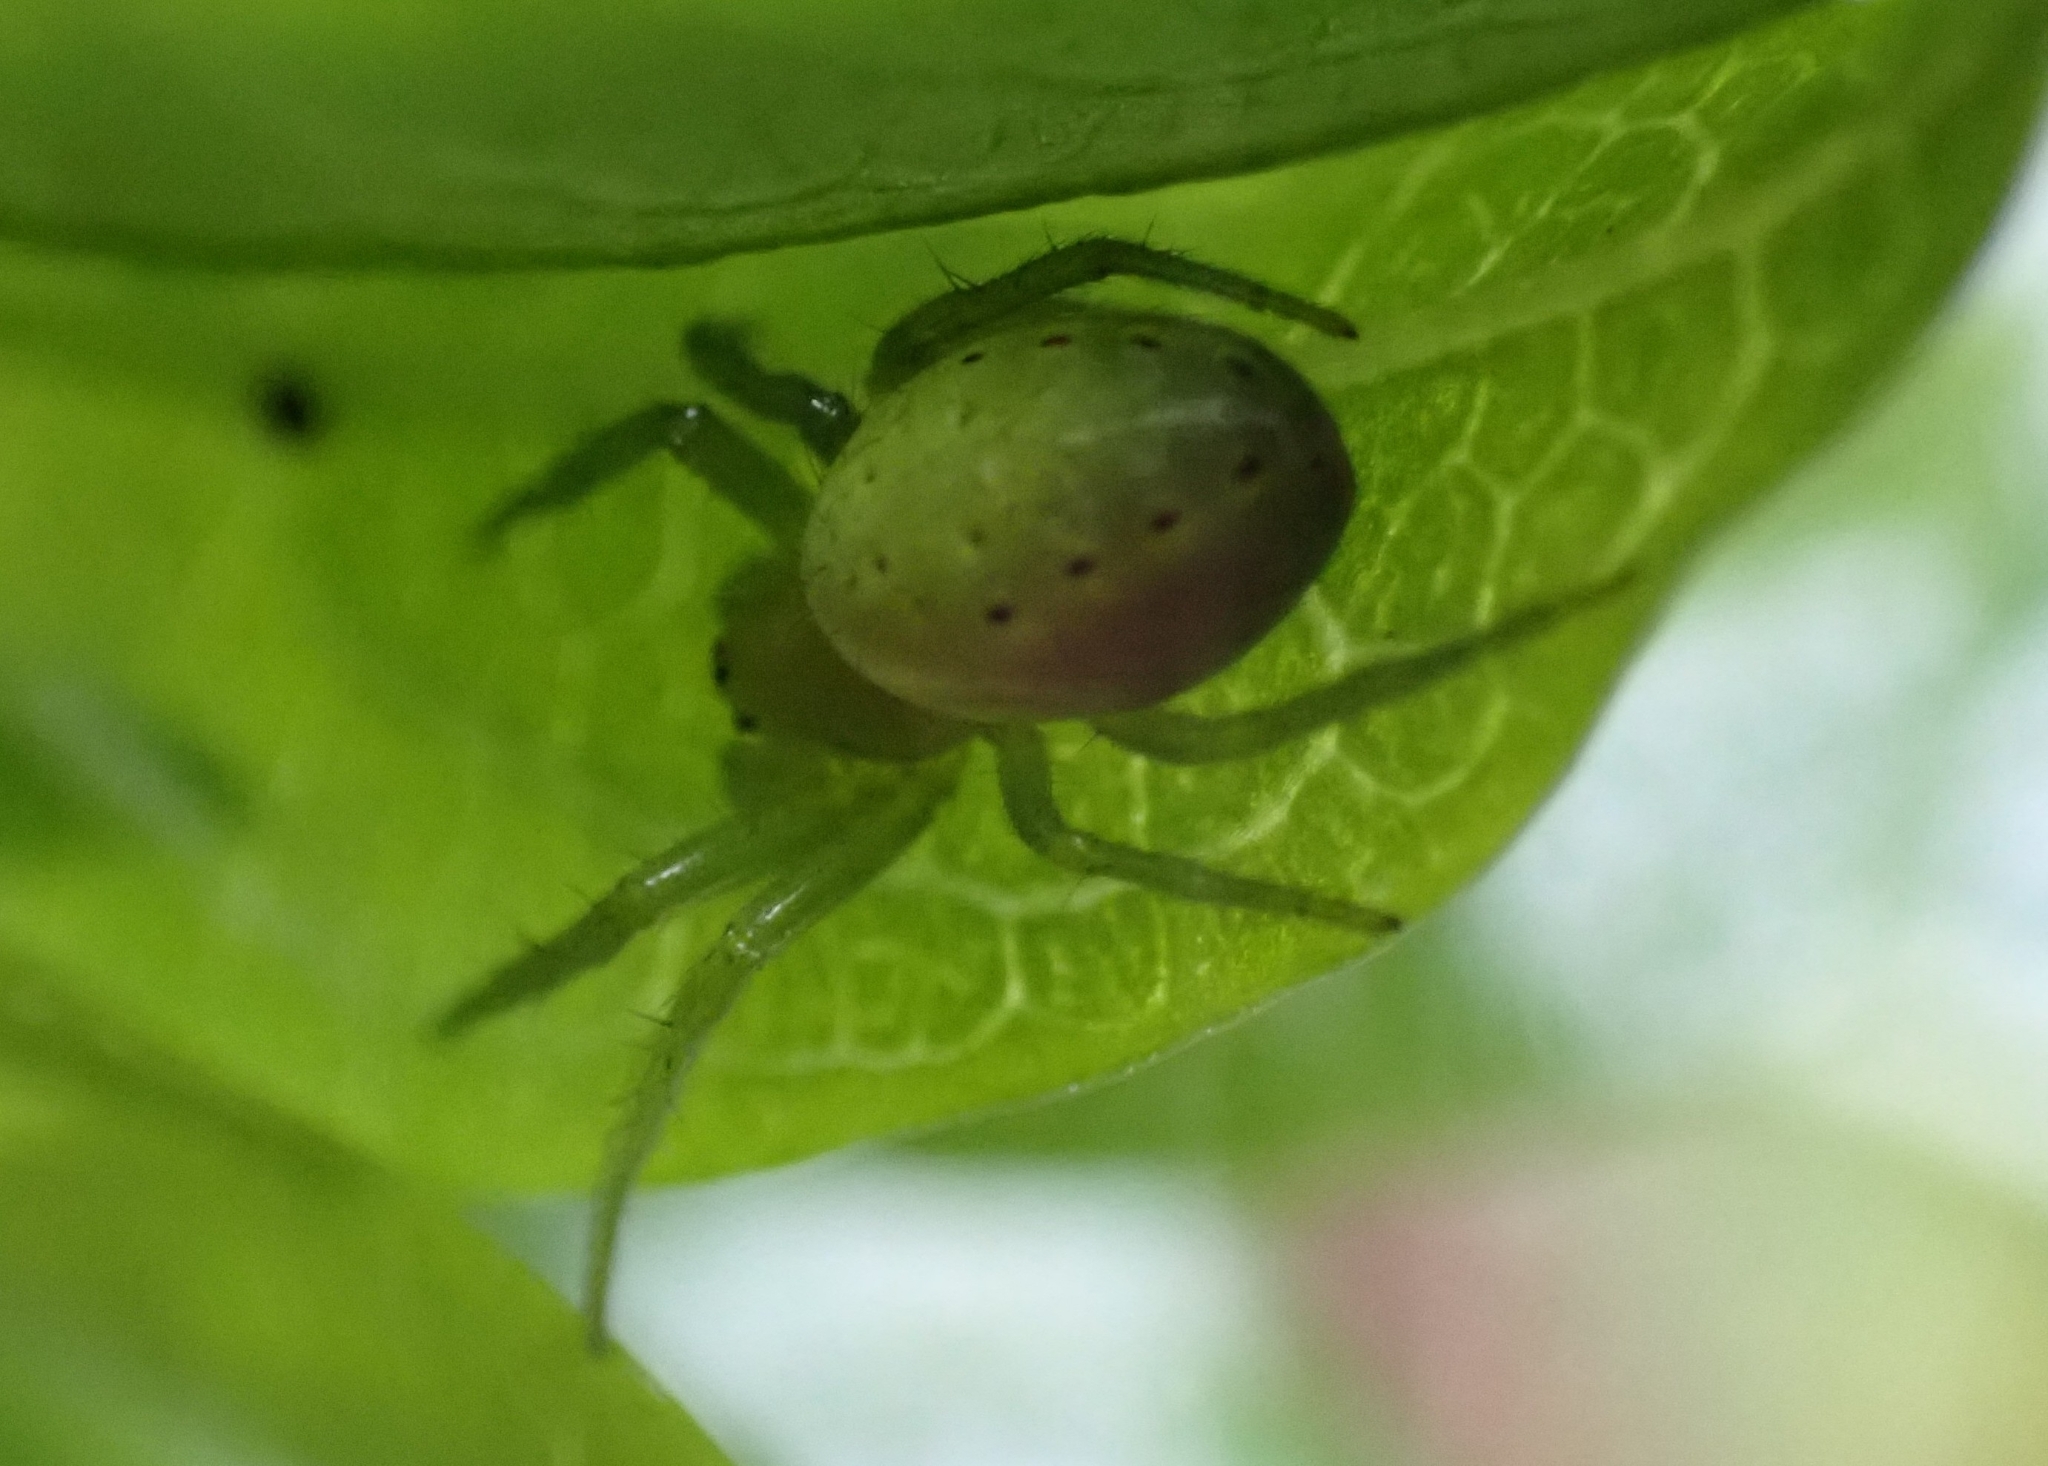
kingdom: Animalia
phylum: Arthropoda
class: Arachnida
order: Araneae
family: Araneidae
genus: Araniella
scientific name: Araniella maderiana
